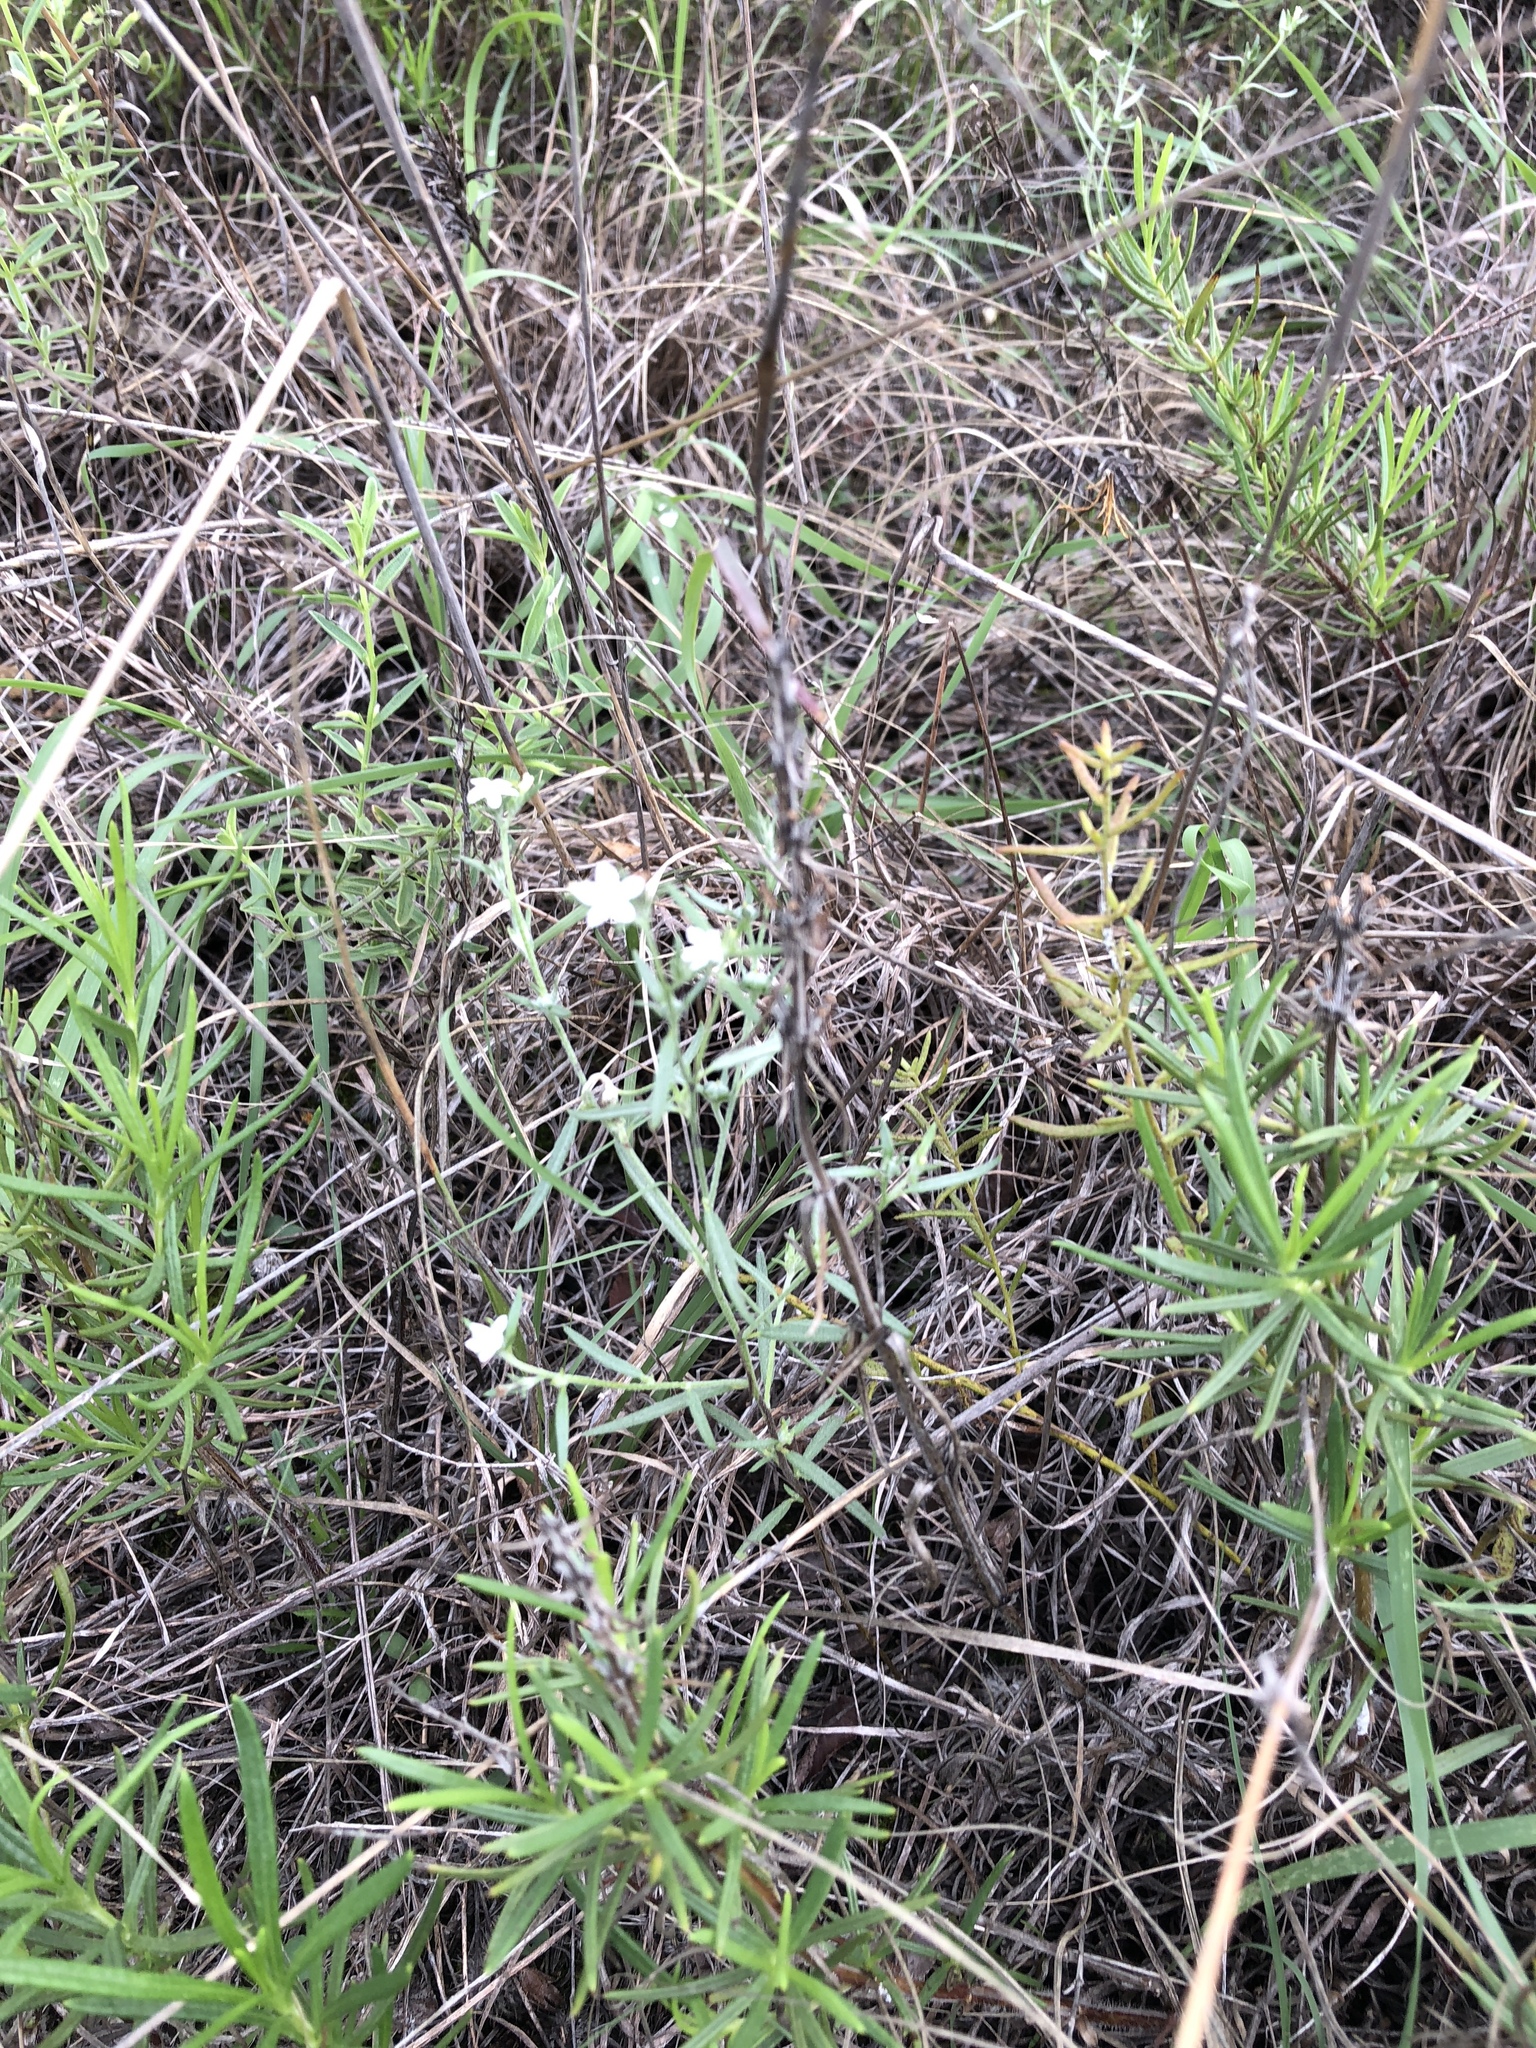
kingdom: Plantae
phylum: Tracheophyta
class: Magnoliopsida
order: Boraginales
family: Heliotropiaceae
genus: Euploca
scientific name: Euploca tenella
